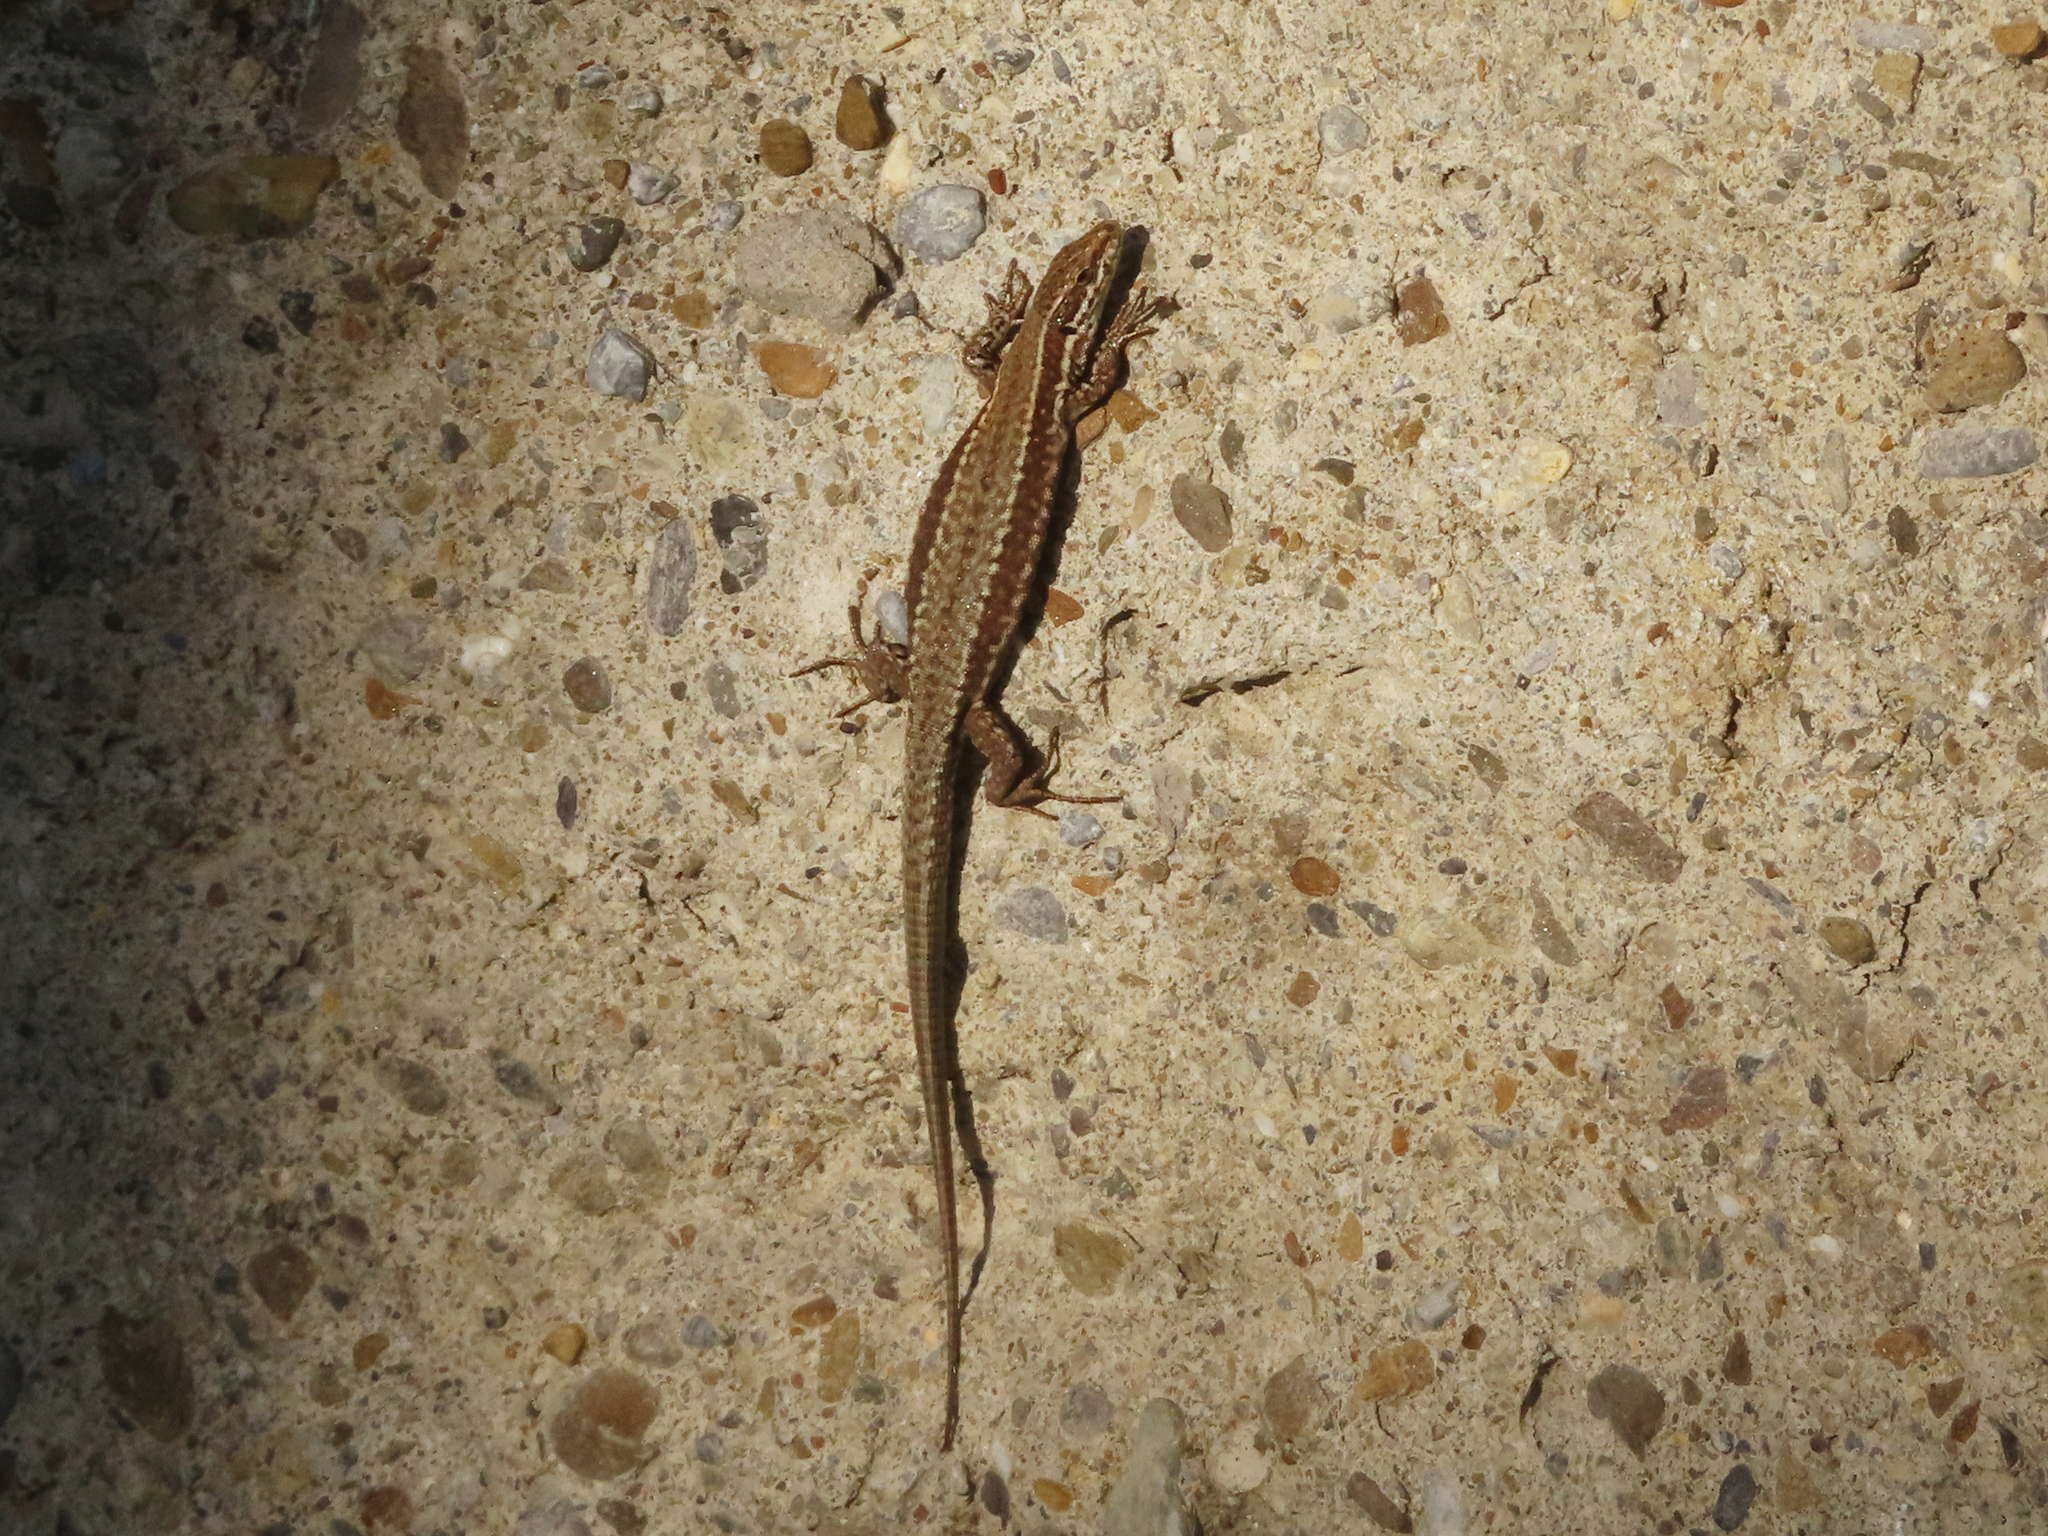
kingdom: Animalia
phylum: Chordata
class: Squamata
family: Lacertidae
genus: Podarcis
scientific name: Podarcis muralis
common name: Common wall lizard
